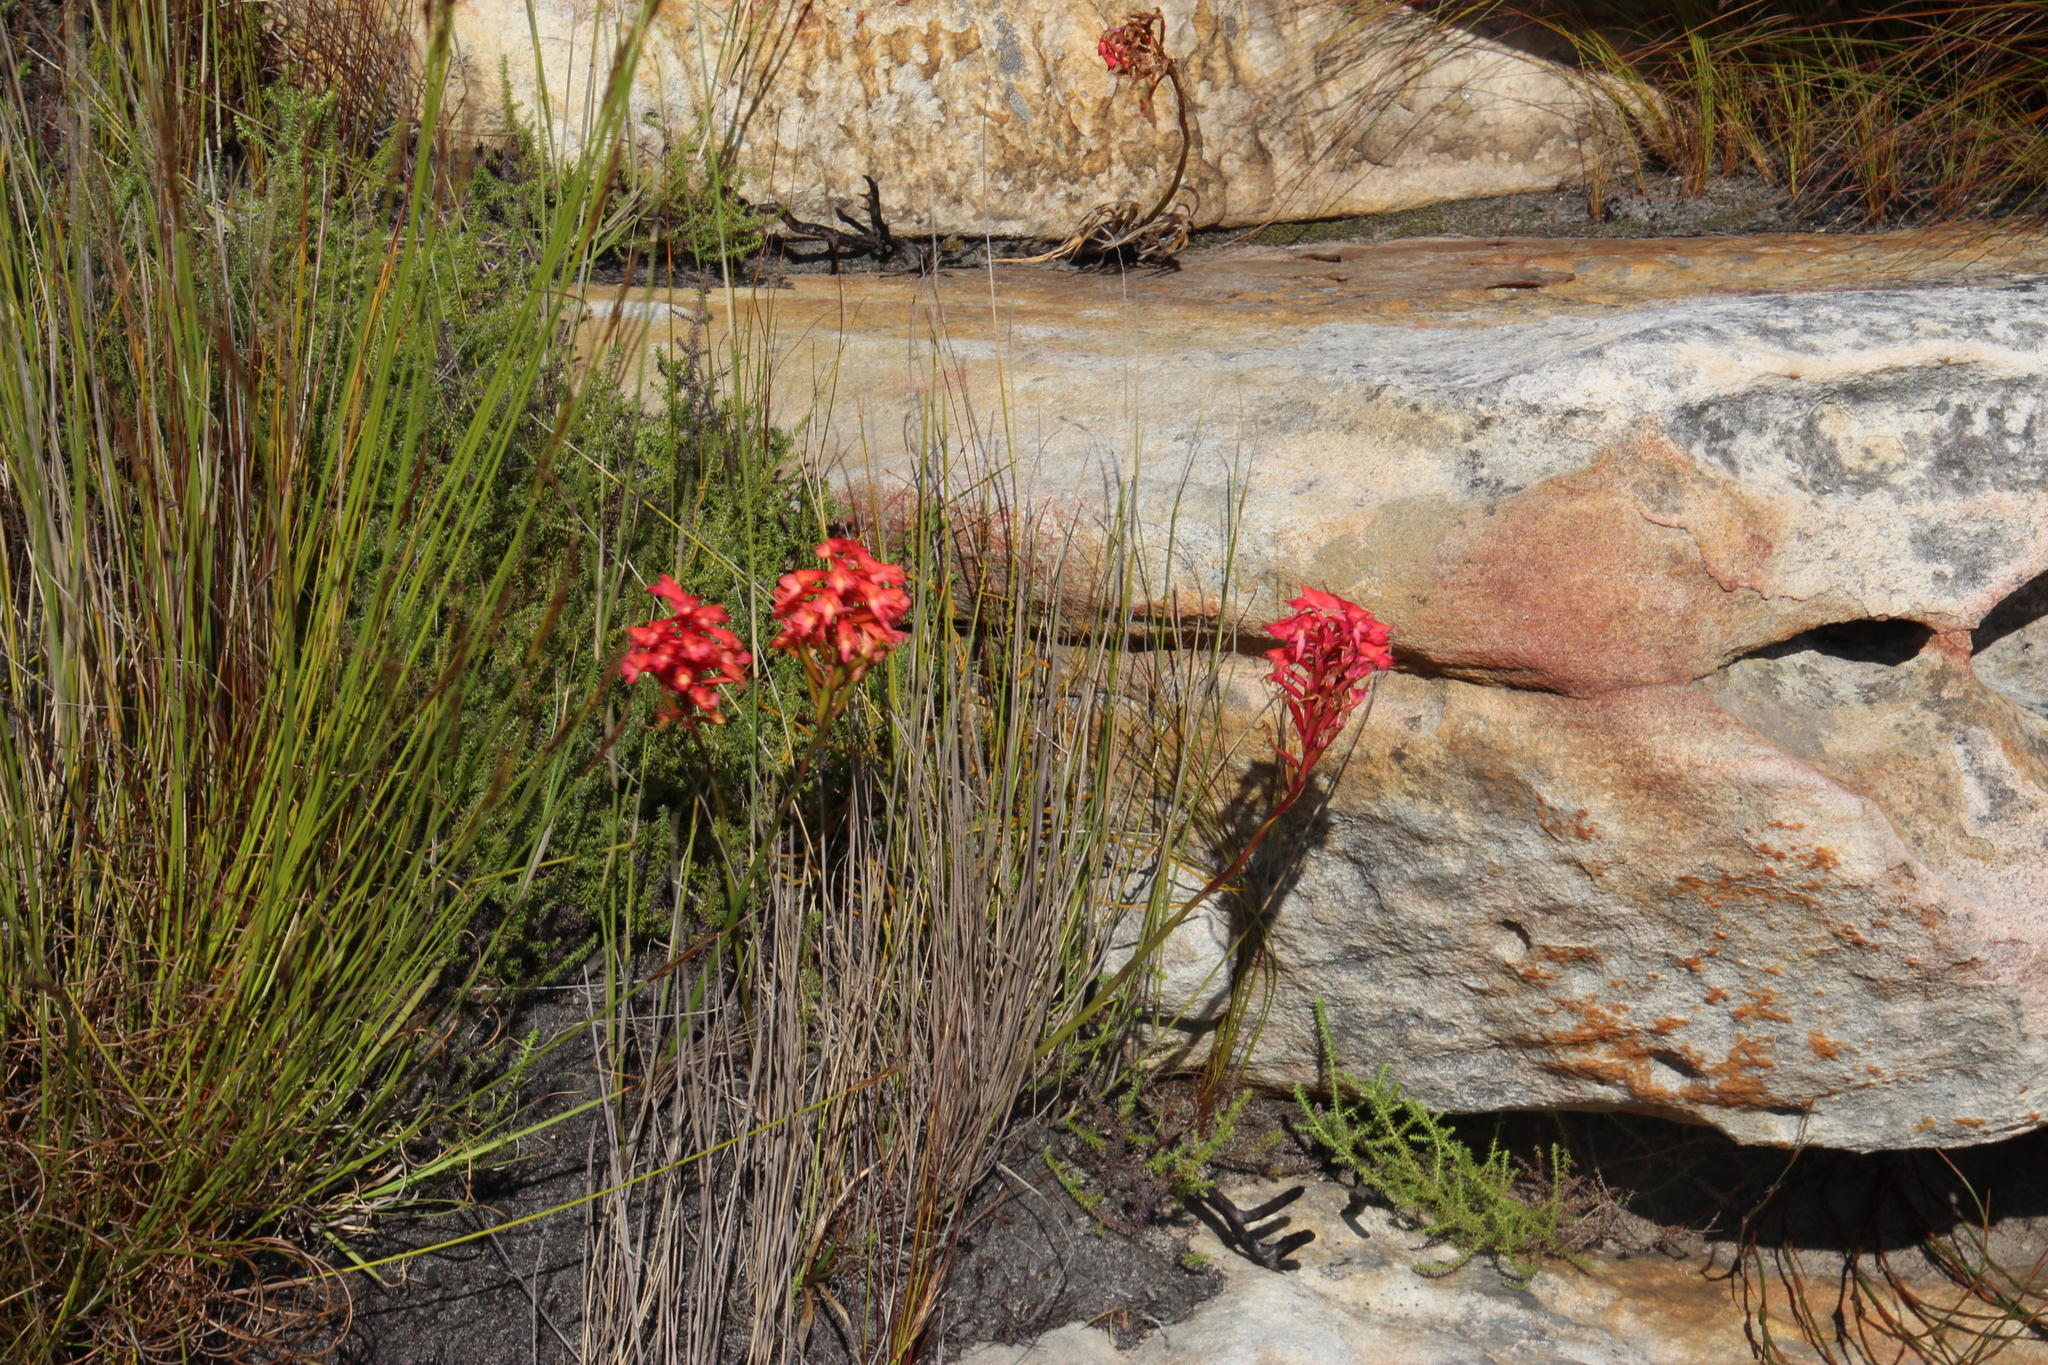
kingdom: Plantae
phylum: Tracheophyta
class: Liliopsida
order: Asparagales
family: Orchidaceae
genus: Disa
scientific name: Disa ferruginea
